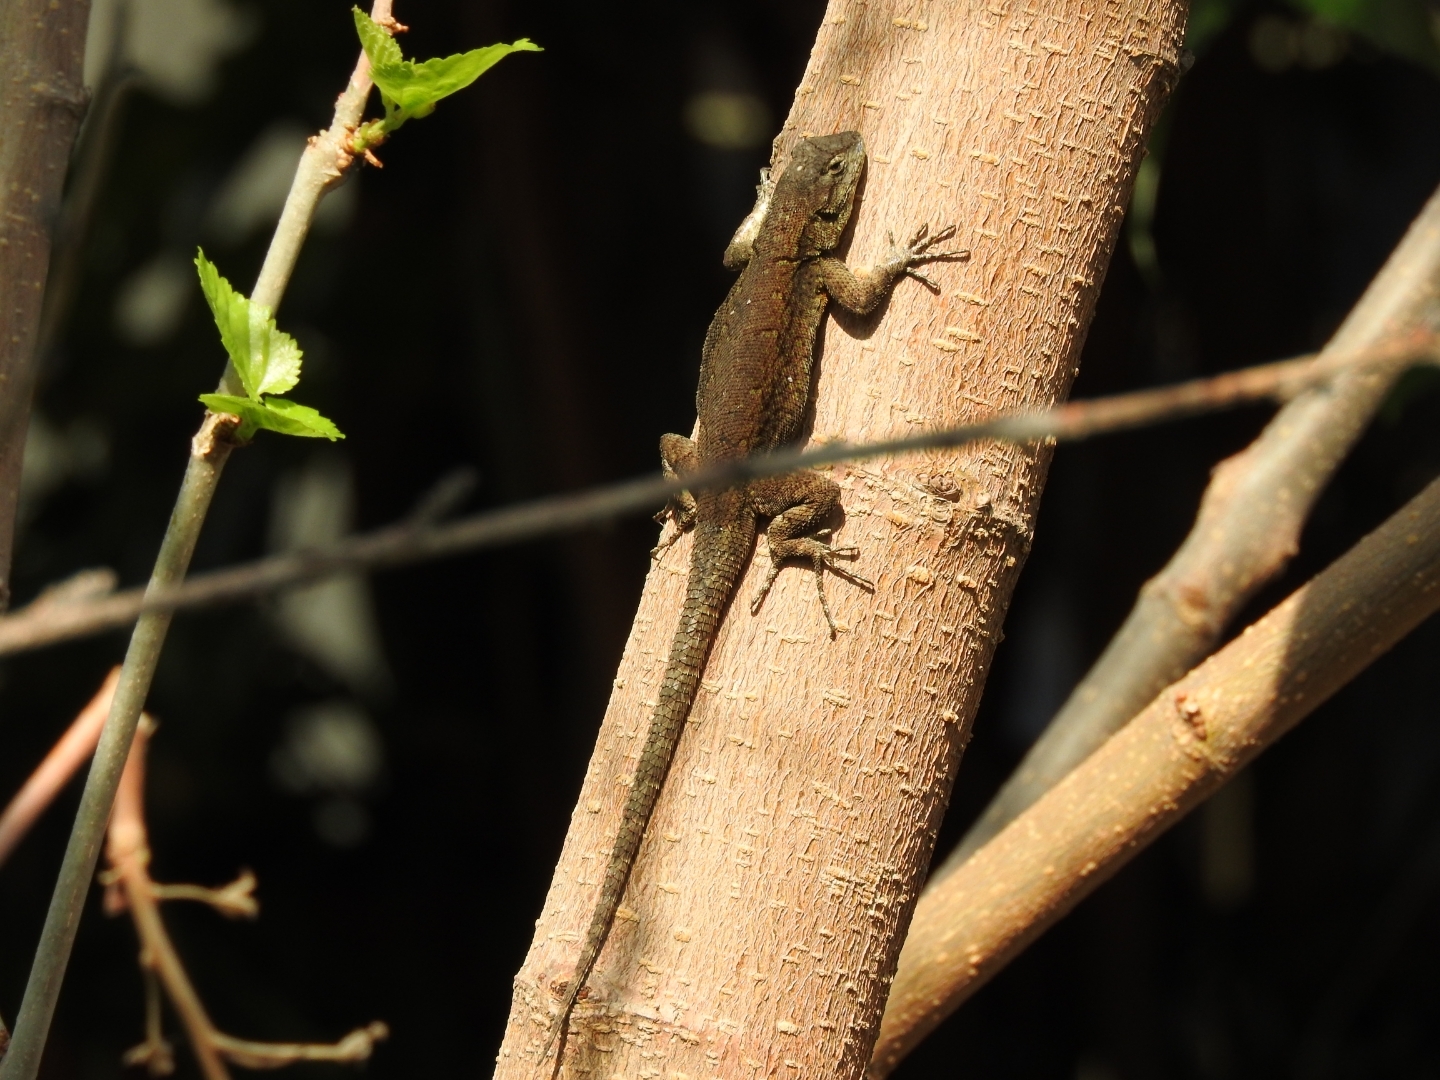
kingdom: Animalia
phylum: Chordata
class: Squamata
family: Phrynosomatidae
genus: Sceloporus
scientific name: Sceloporus grammicus
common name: Mesquite lizard
